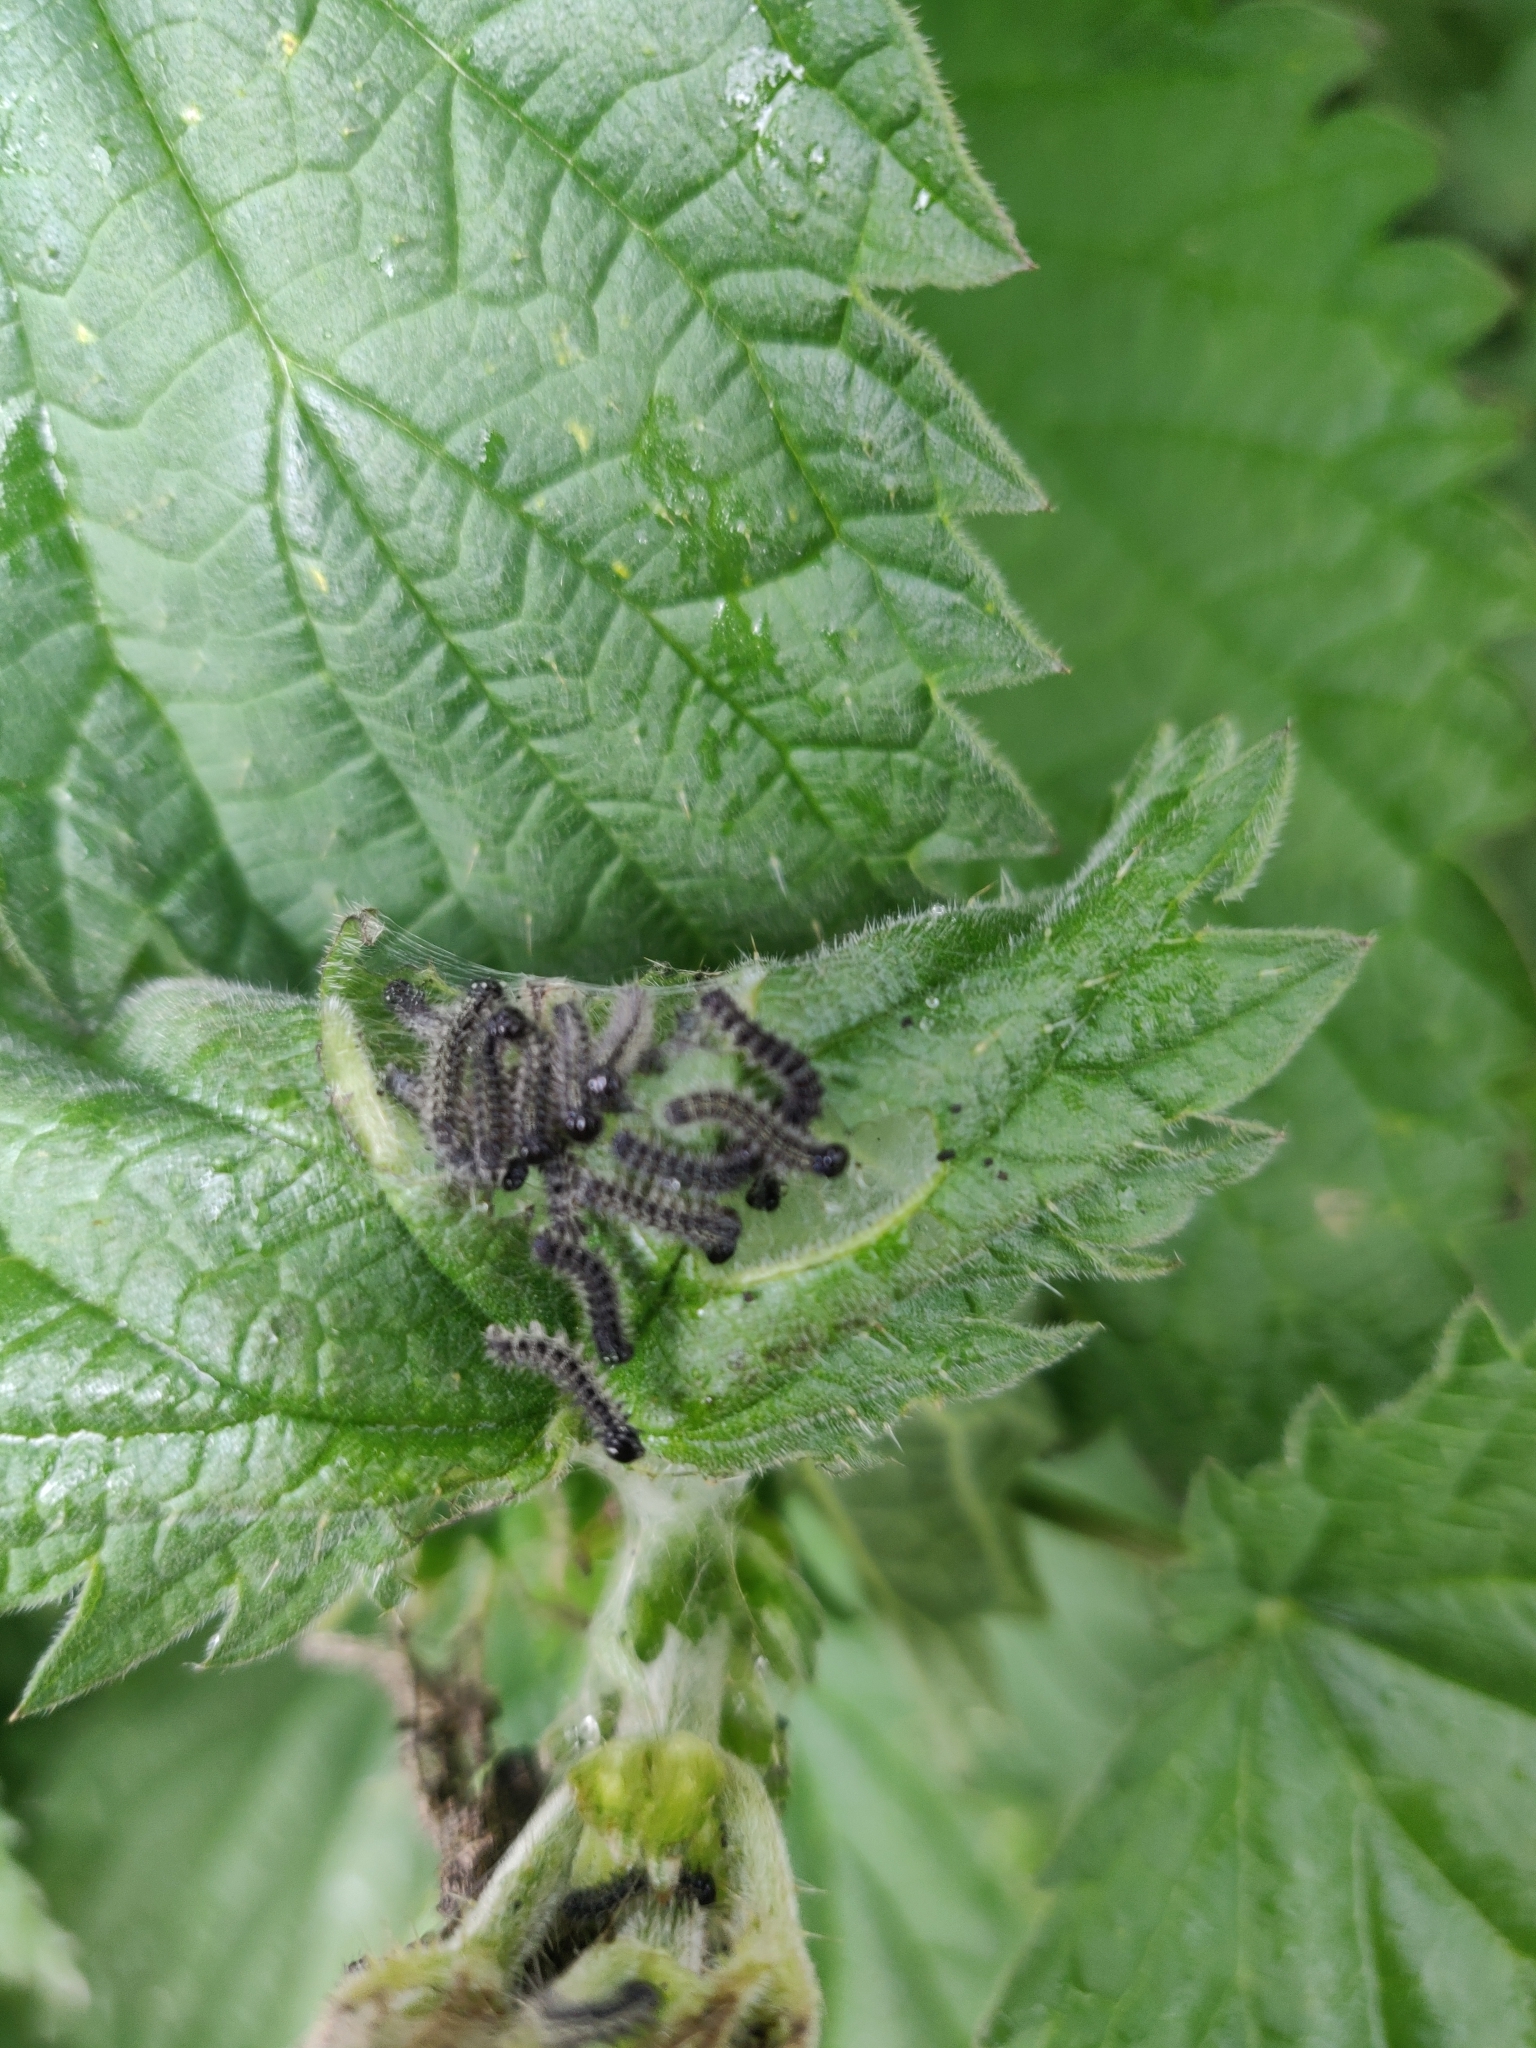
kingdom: Animalia
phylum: Arthropoda
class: Insecta
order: Lepidoptera
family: Nymphalidae
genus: Aglais
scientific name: Aglais urticae
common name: Small tortoiseshell
